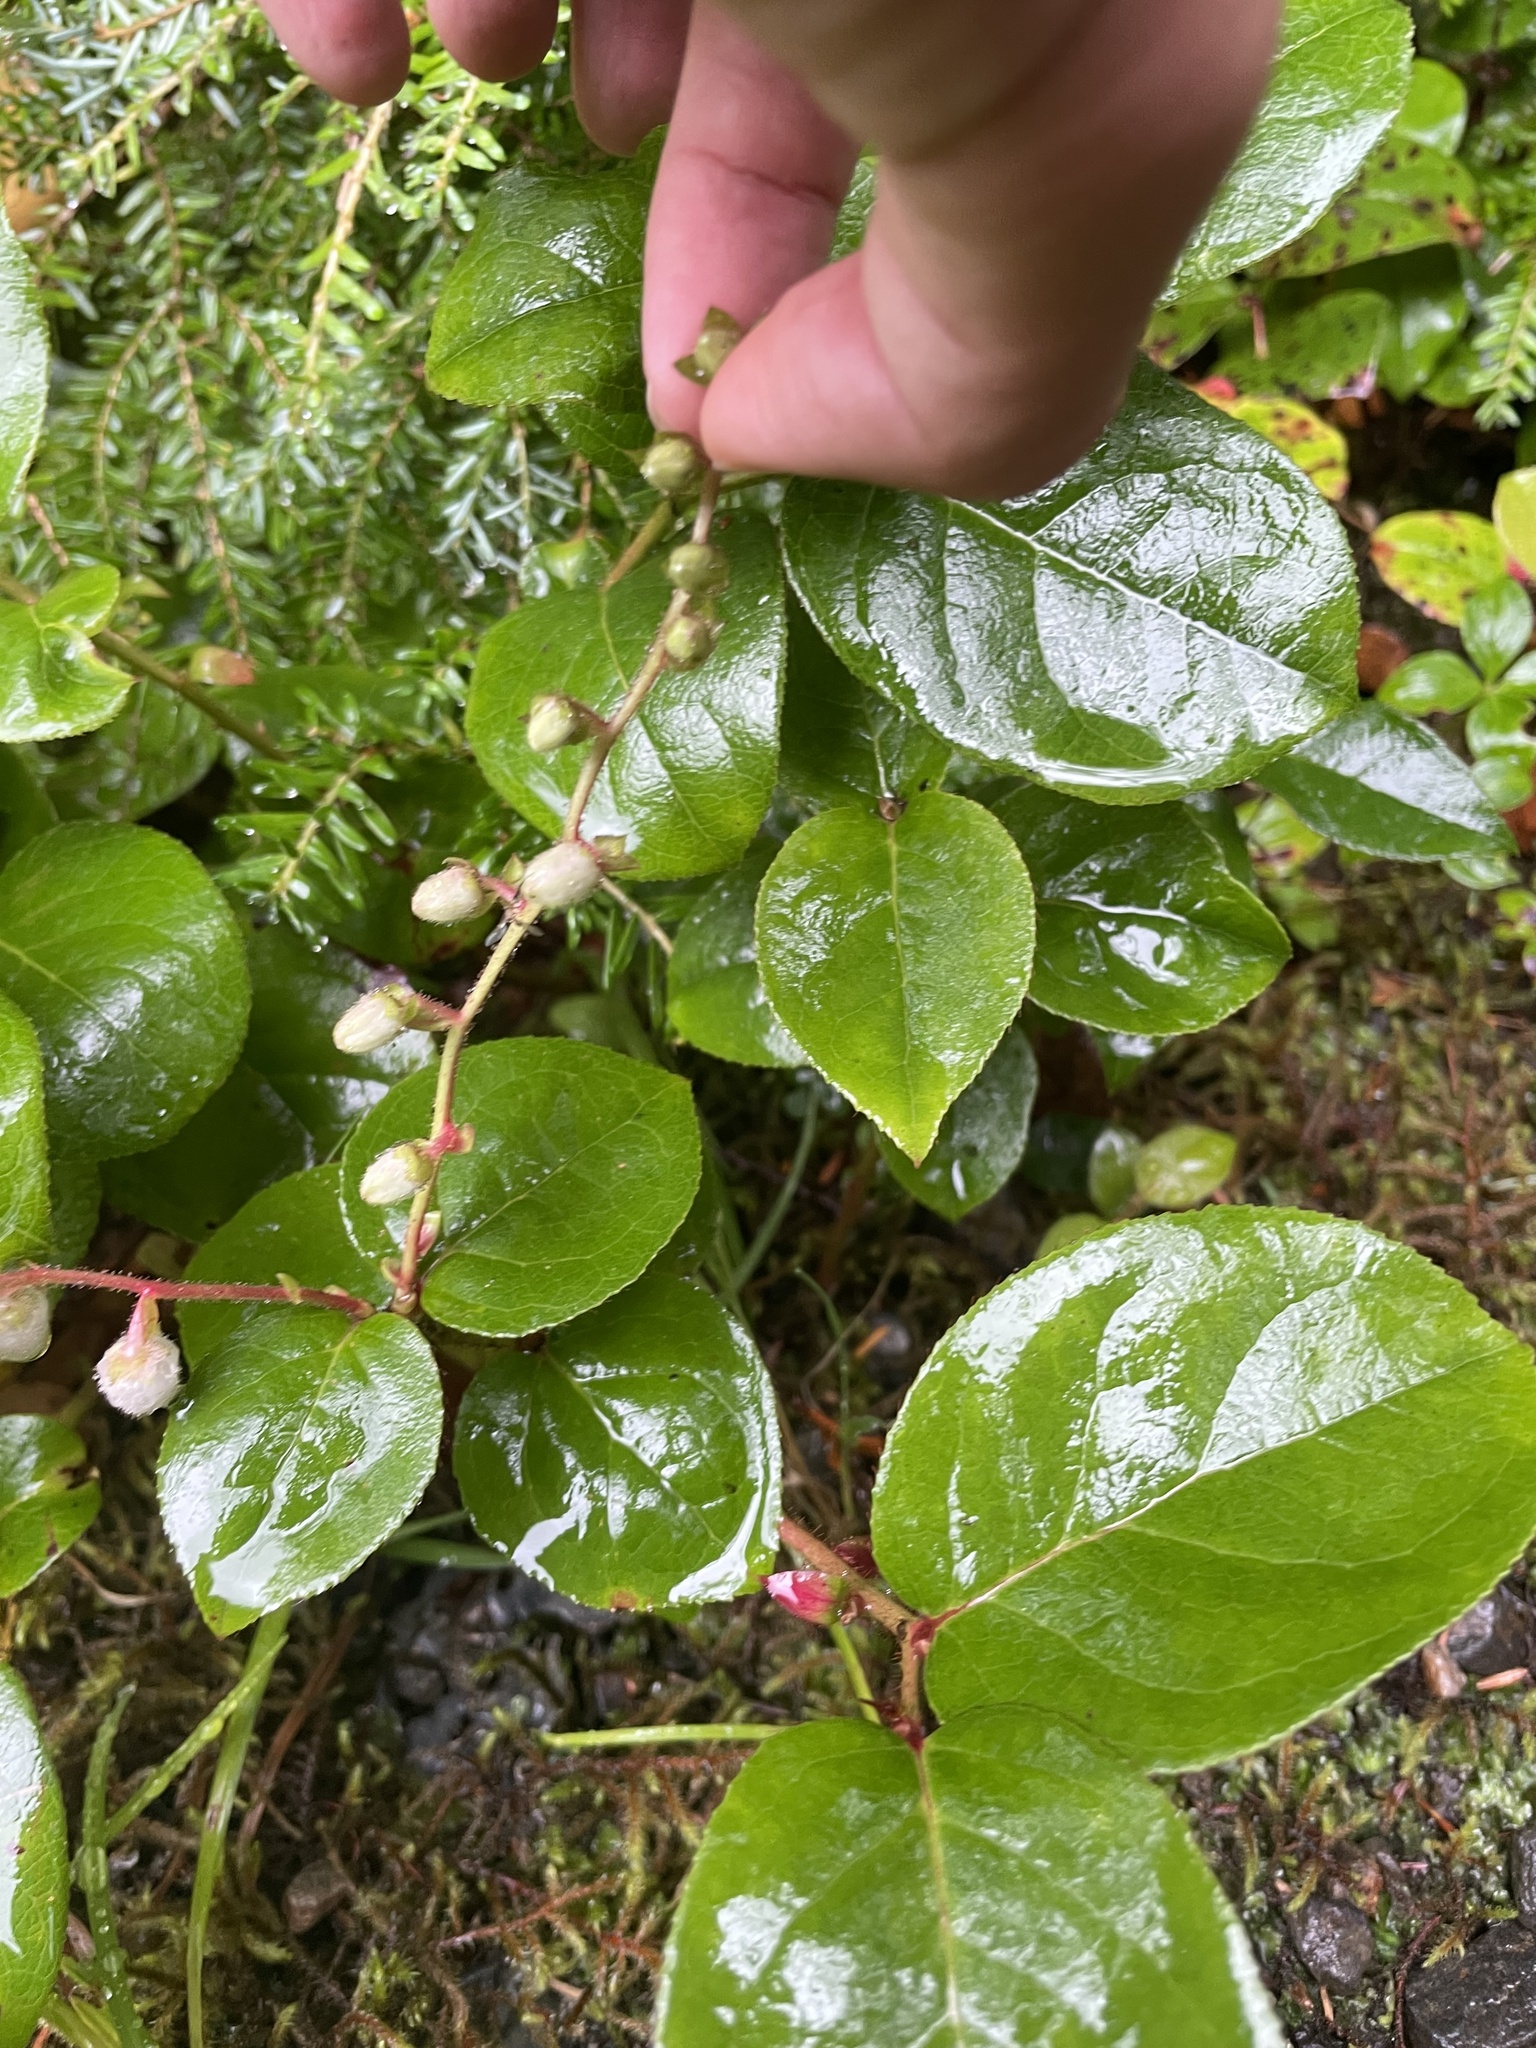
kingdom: Plantae
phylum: Tracheophyta
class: Magnoliopsida
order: Ericales
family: Ericaceae
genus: Gaultheria
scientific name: Gaultheria shallon
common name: Shallon
